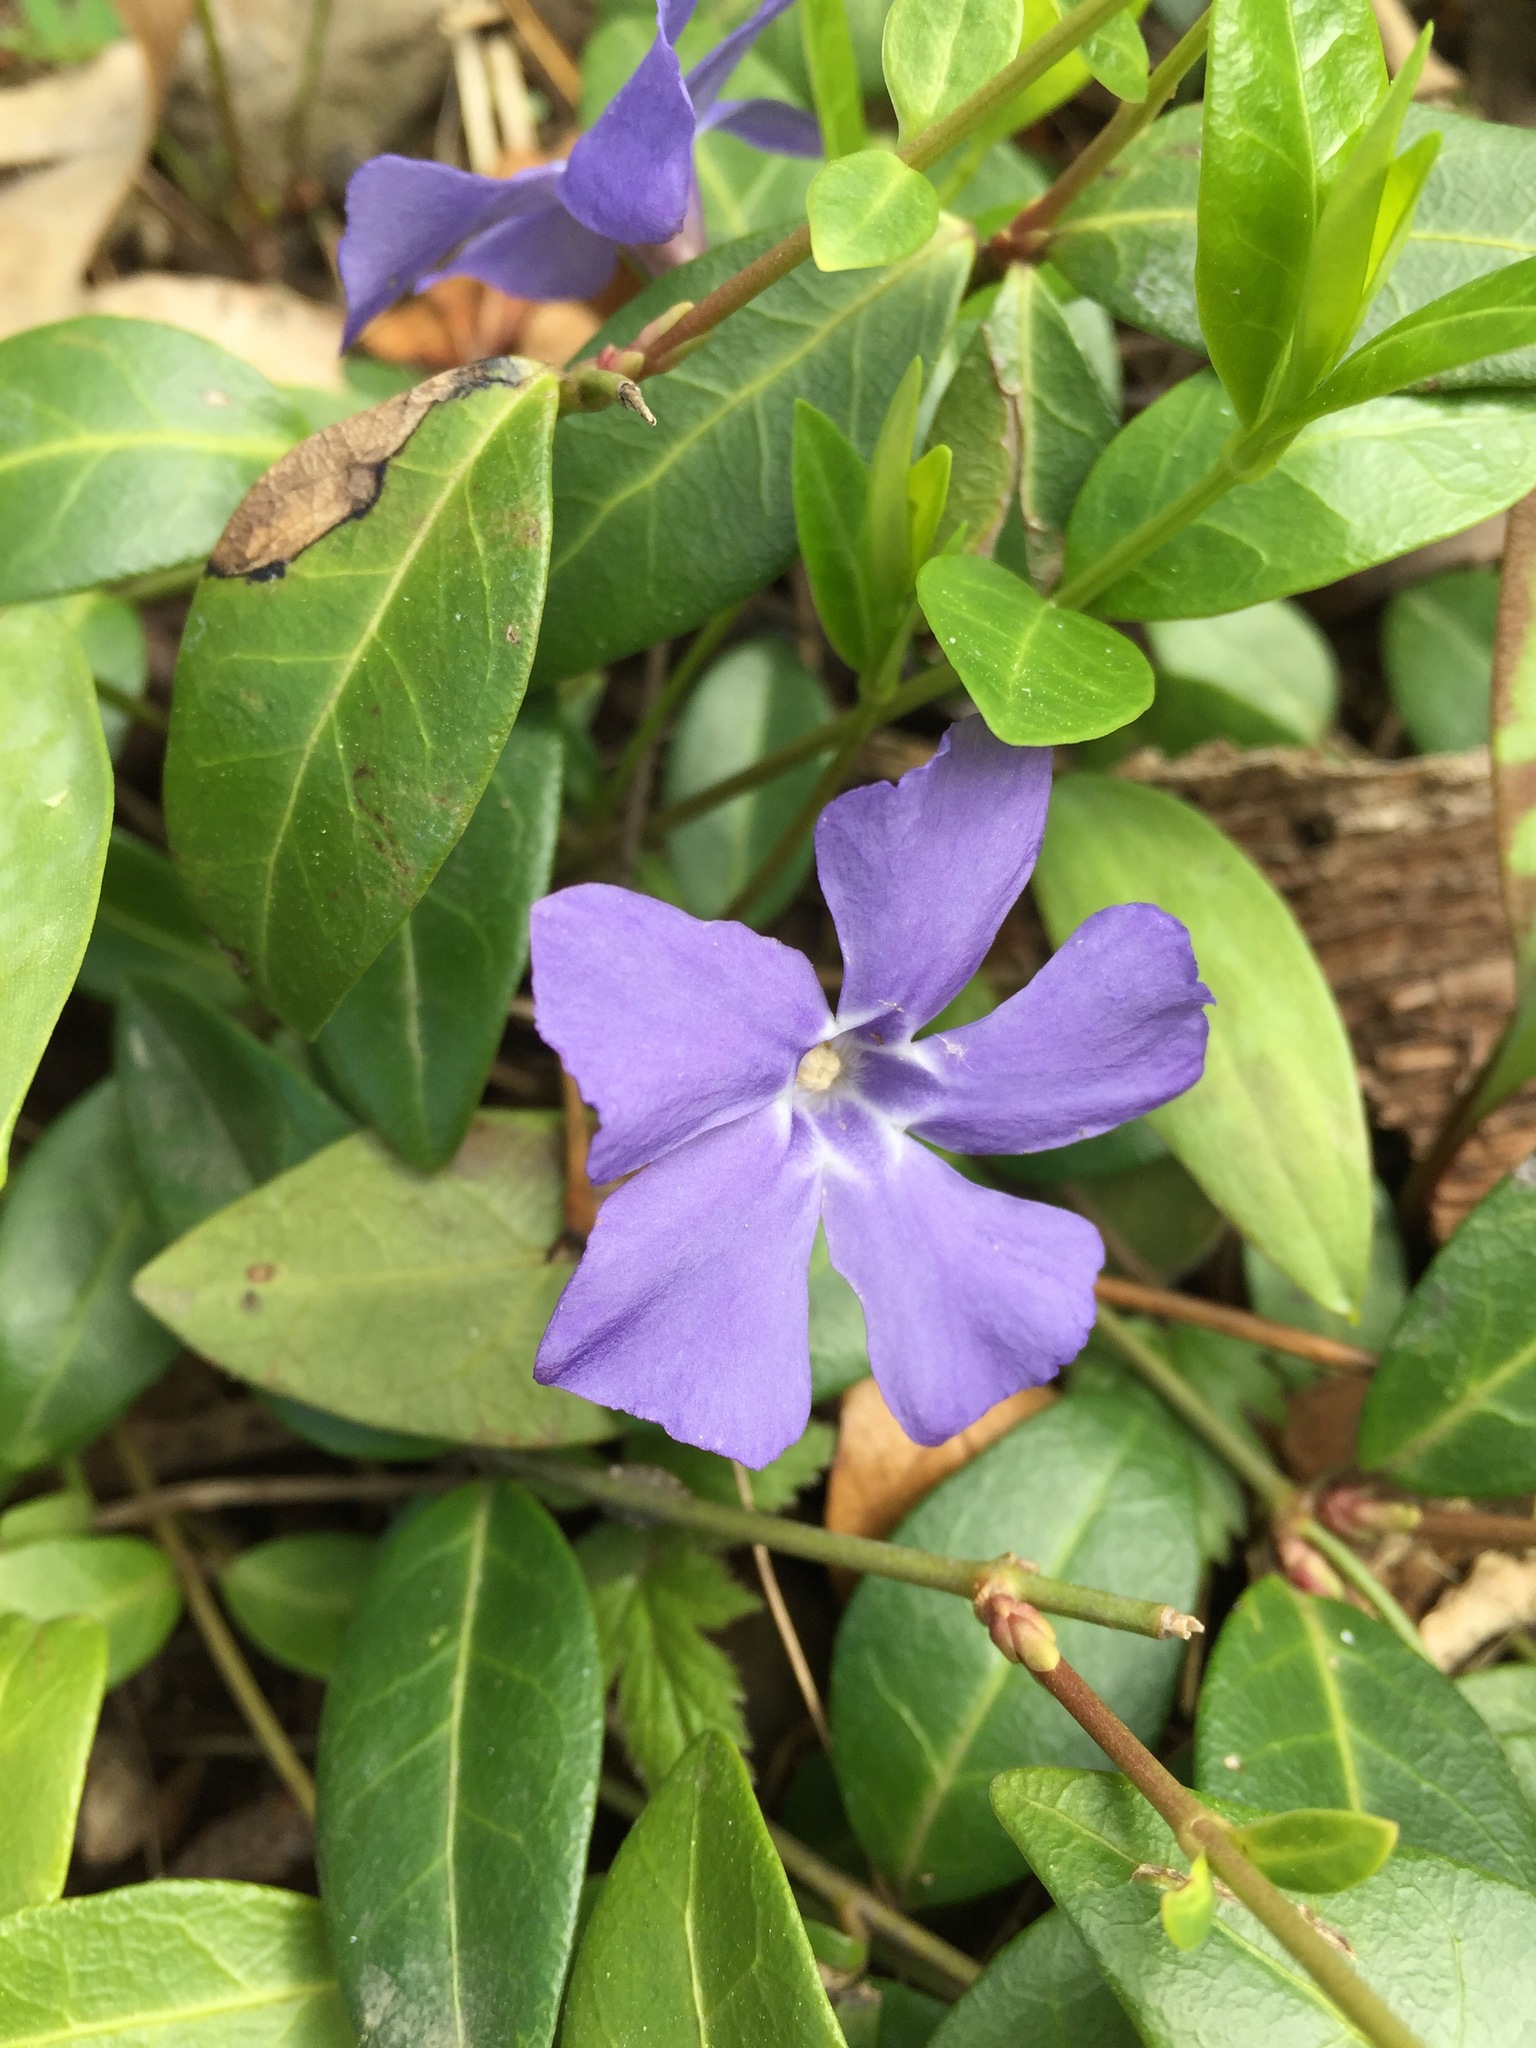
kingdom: Plantae
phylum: Tracheophyta
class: Magnoliopsida
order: Gentianales
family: Apocynaceae
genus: Vinca
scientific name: Vinca minor
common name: Lesser periwinkle
